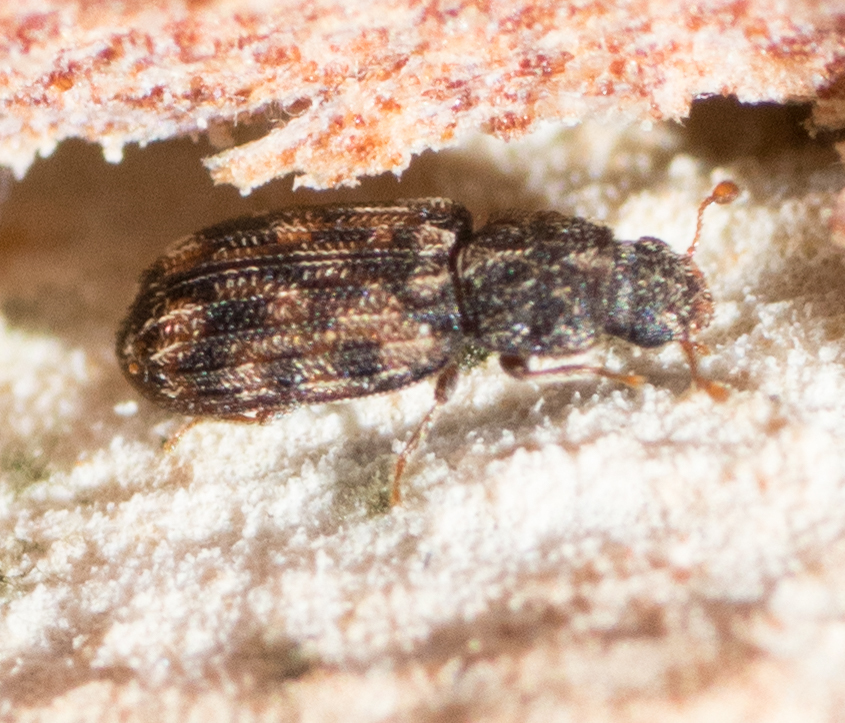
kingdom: Animalia
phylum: Arthropoda
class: Insecta
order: Coleoptera
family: Zopheridae
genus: Synchita
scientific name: Synchita
